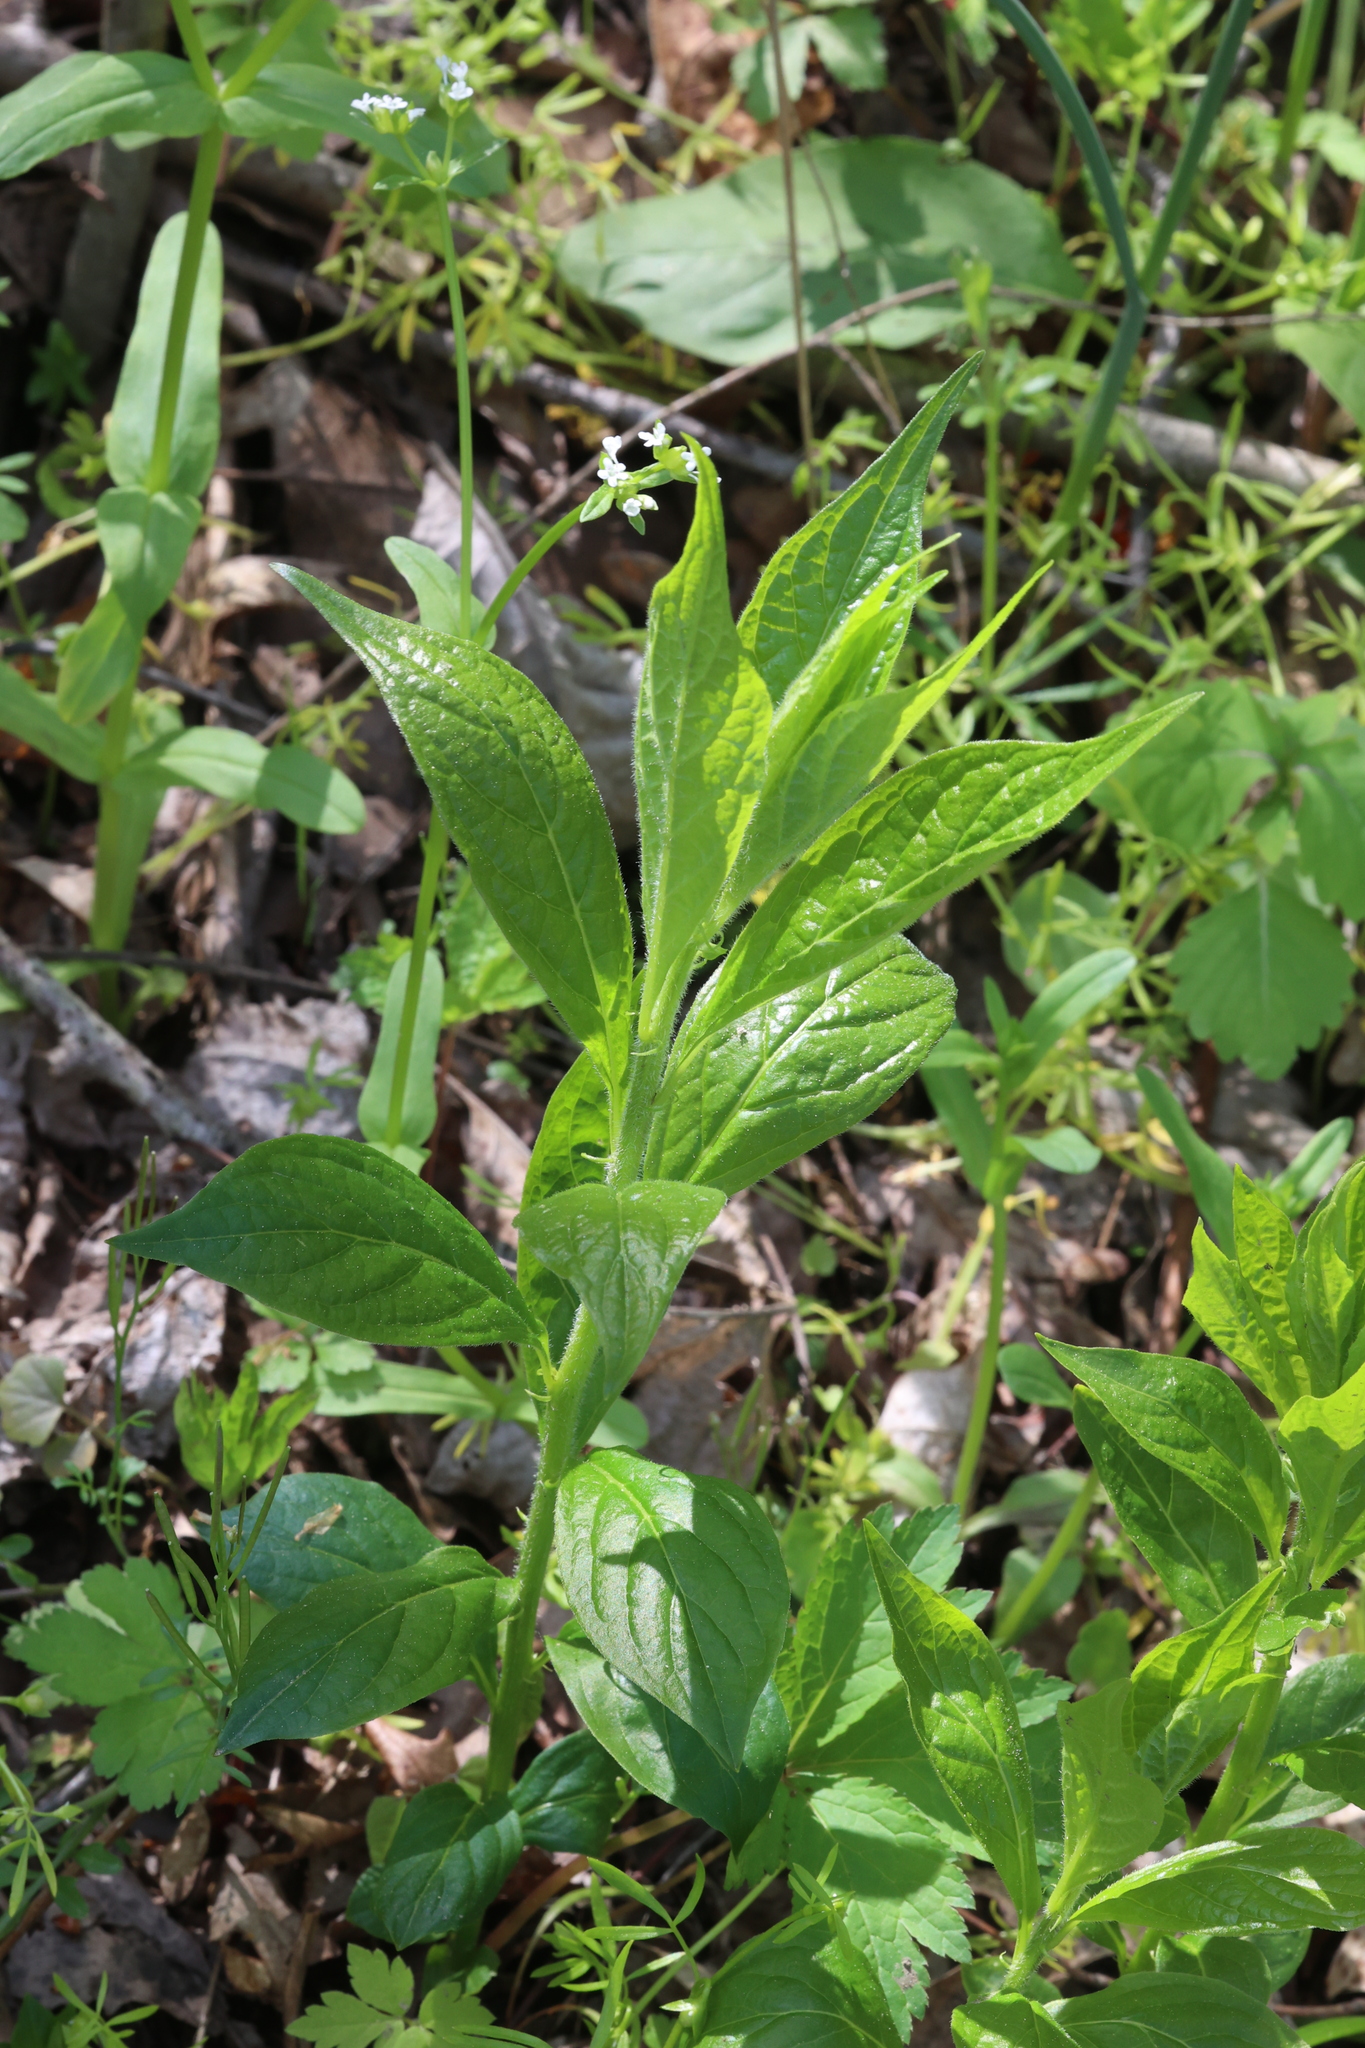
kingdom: Plantae
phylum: Tracheophyta
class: Magnoliopsida
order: Malpighiales
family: Violaceae
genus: Cubelium
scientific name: Cubelium concolor
